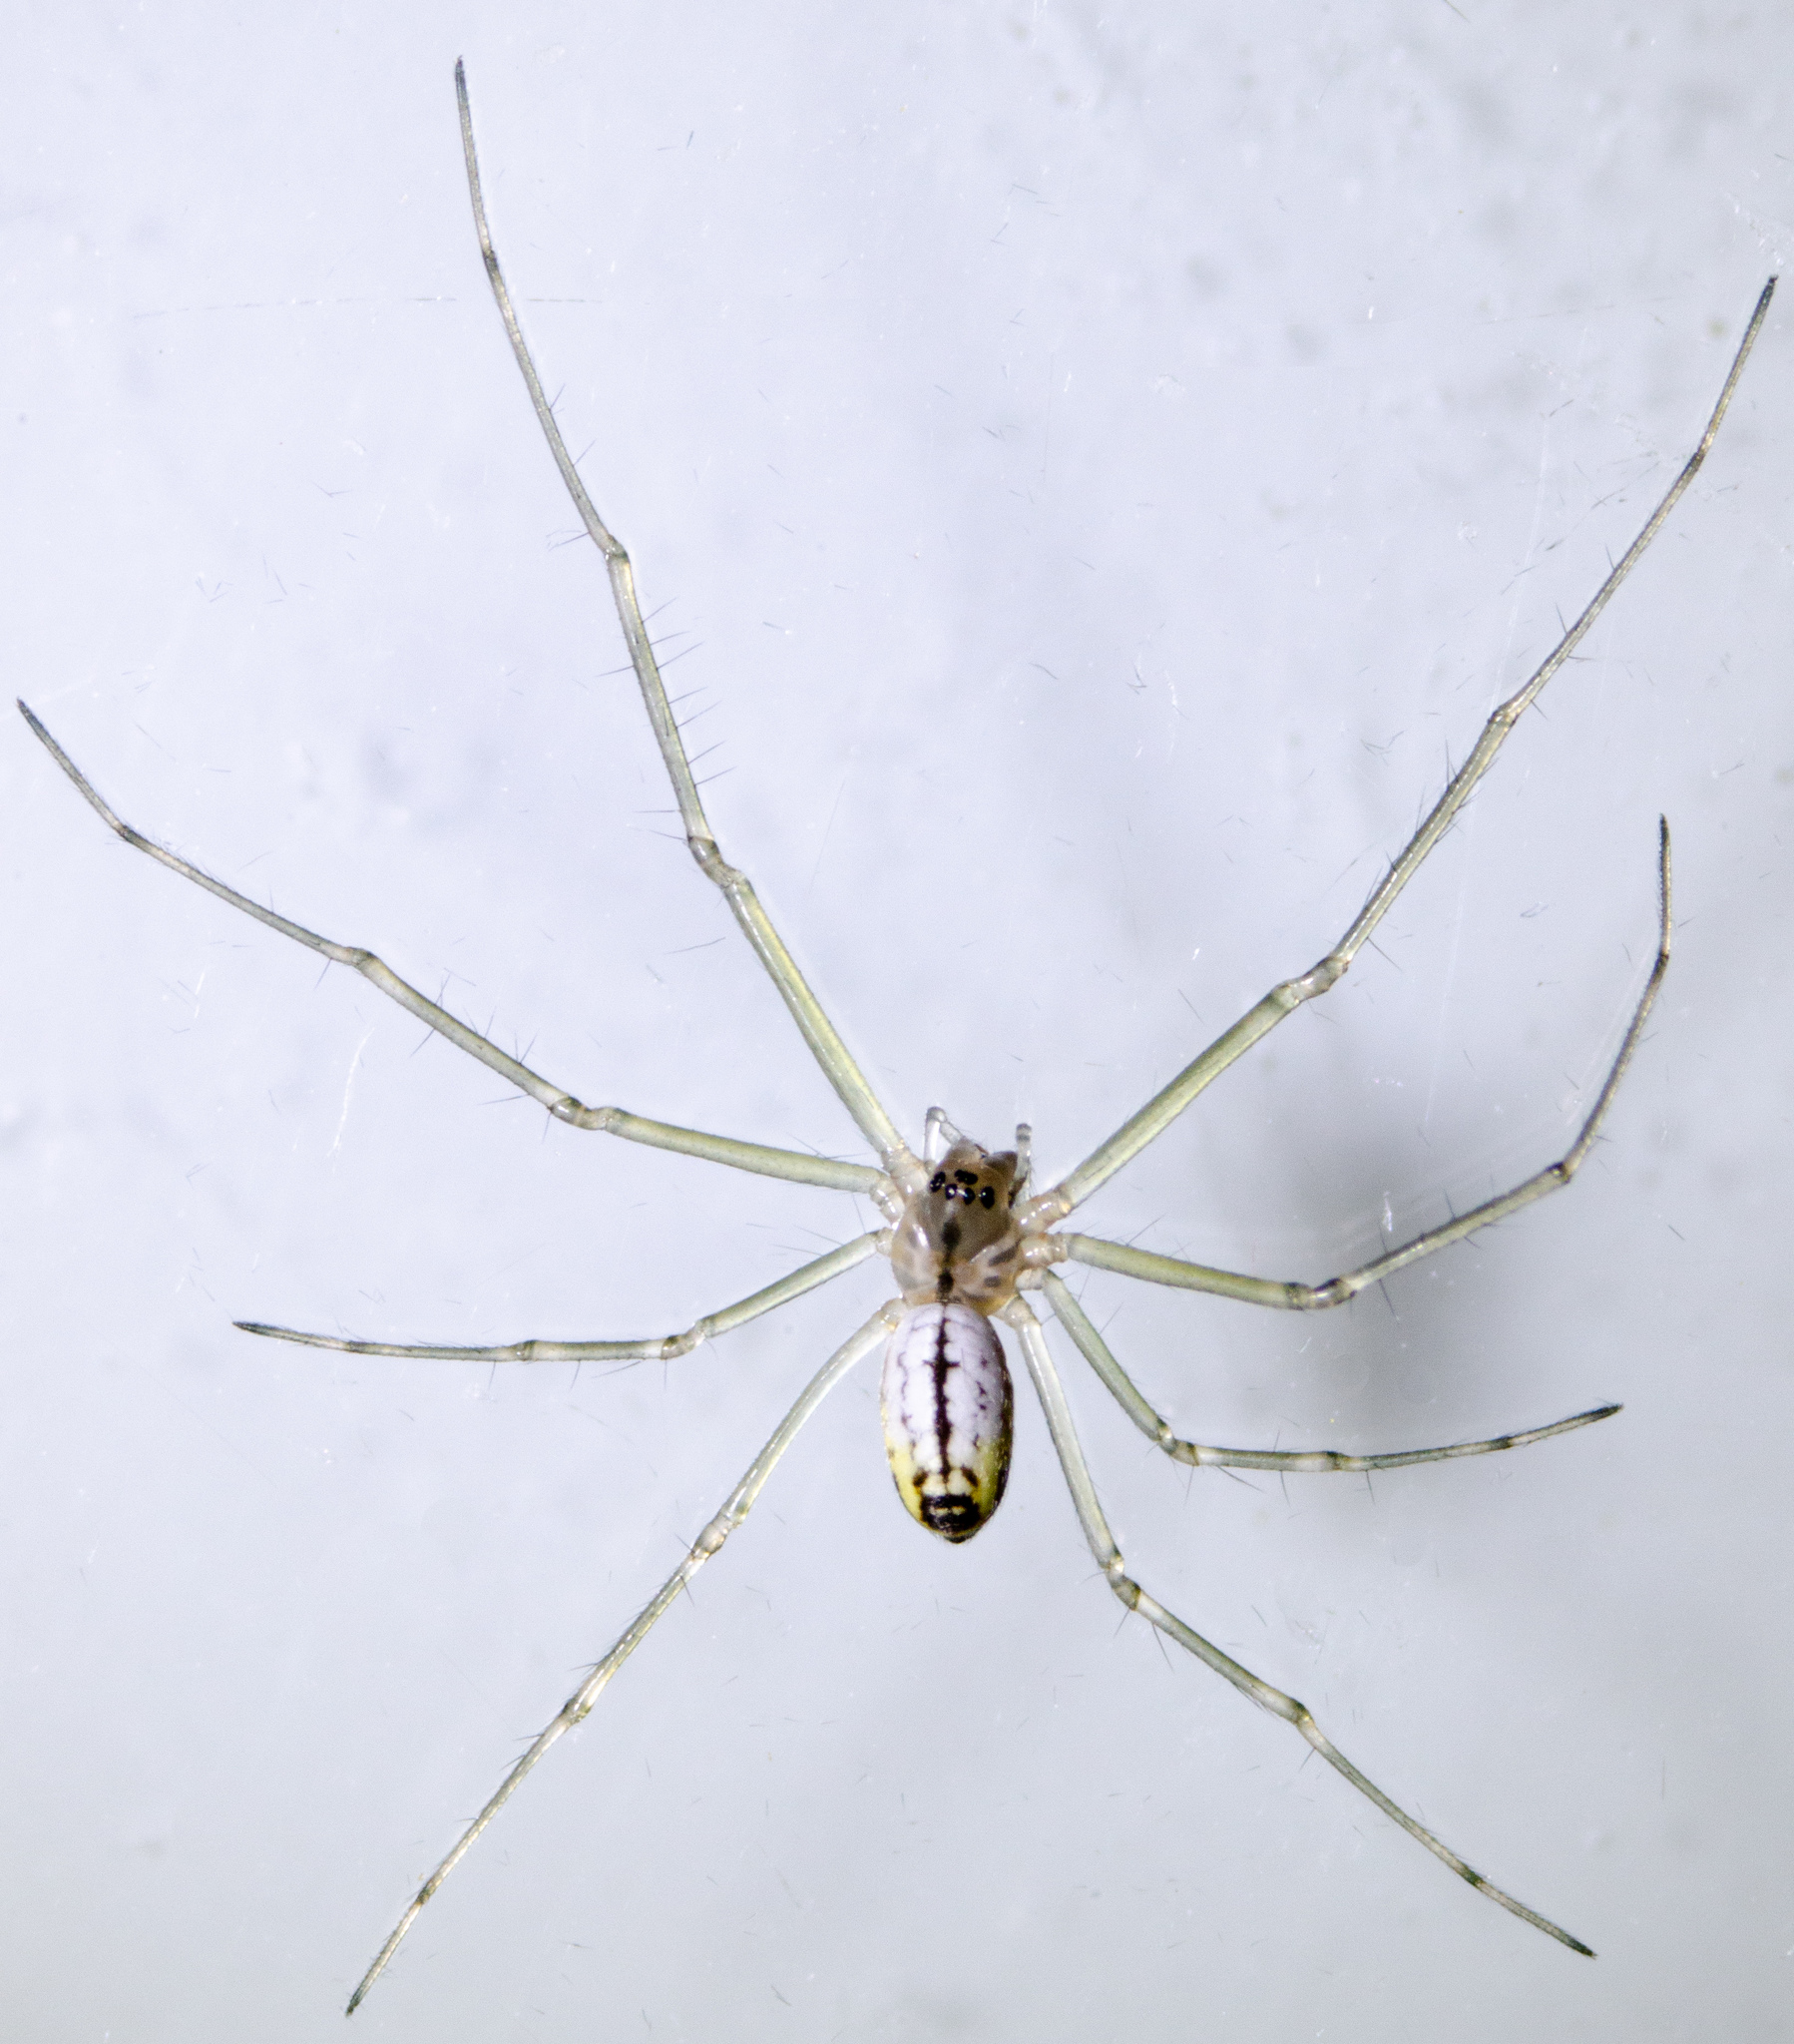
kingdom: Animalia
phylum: Arthropoda
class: Arachnida
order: Araneae
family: Linyphiidae
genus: Neriene
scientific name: Neriene litigiosa
